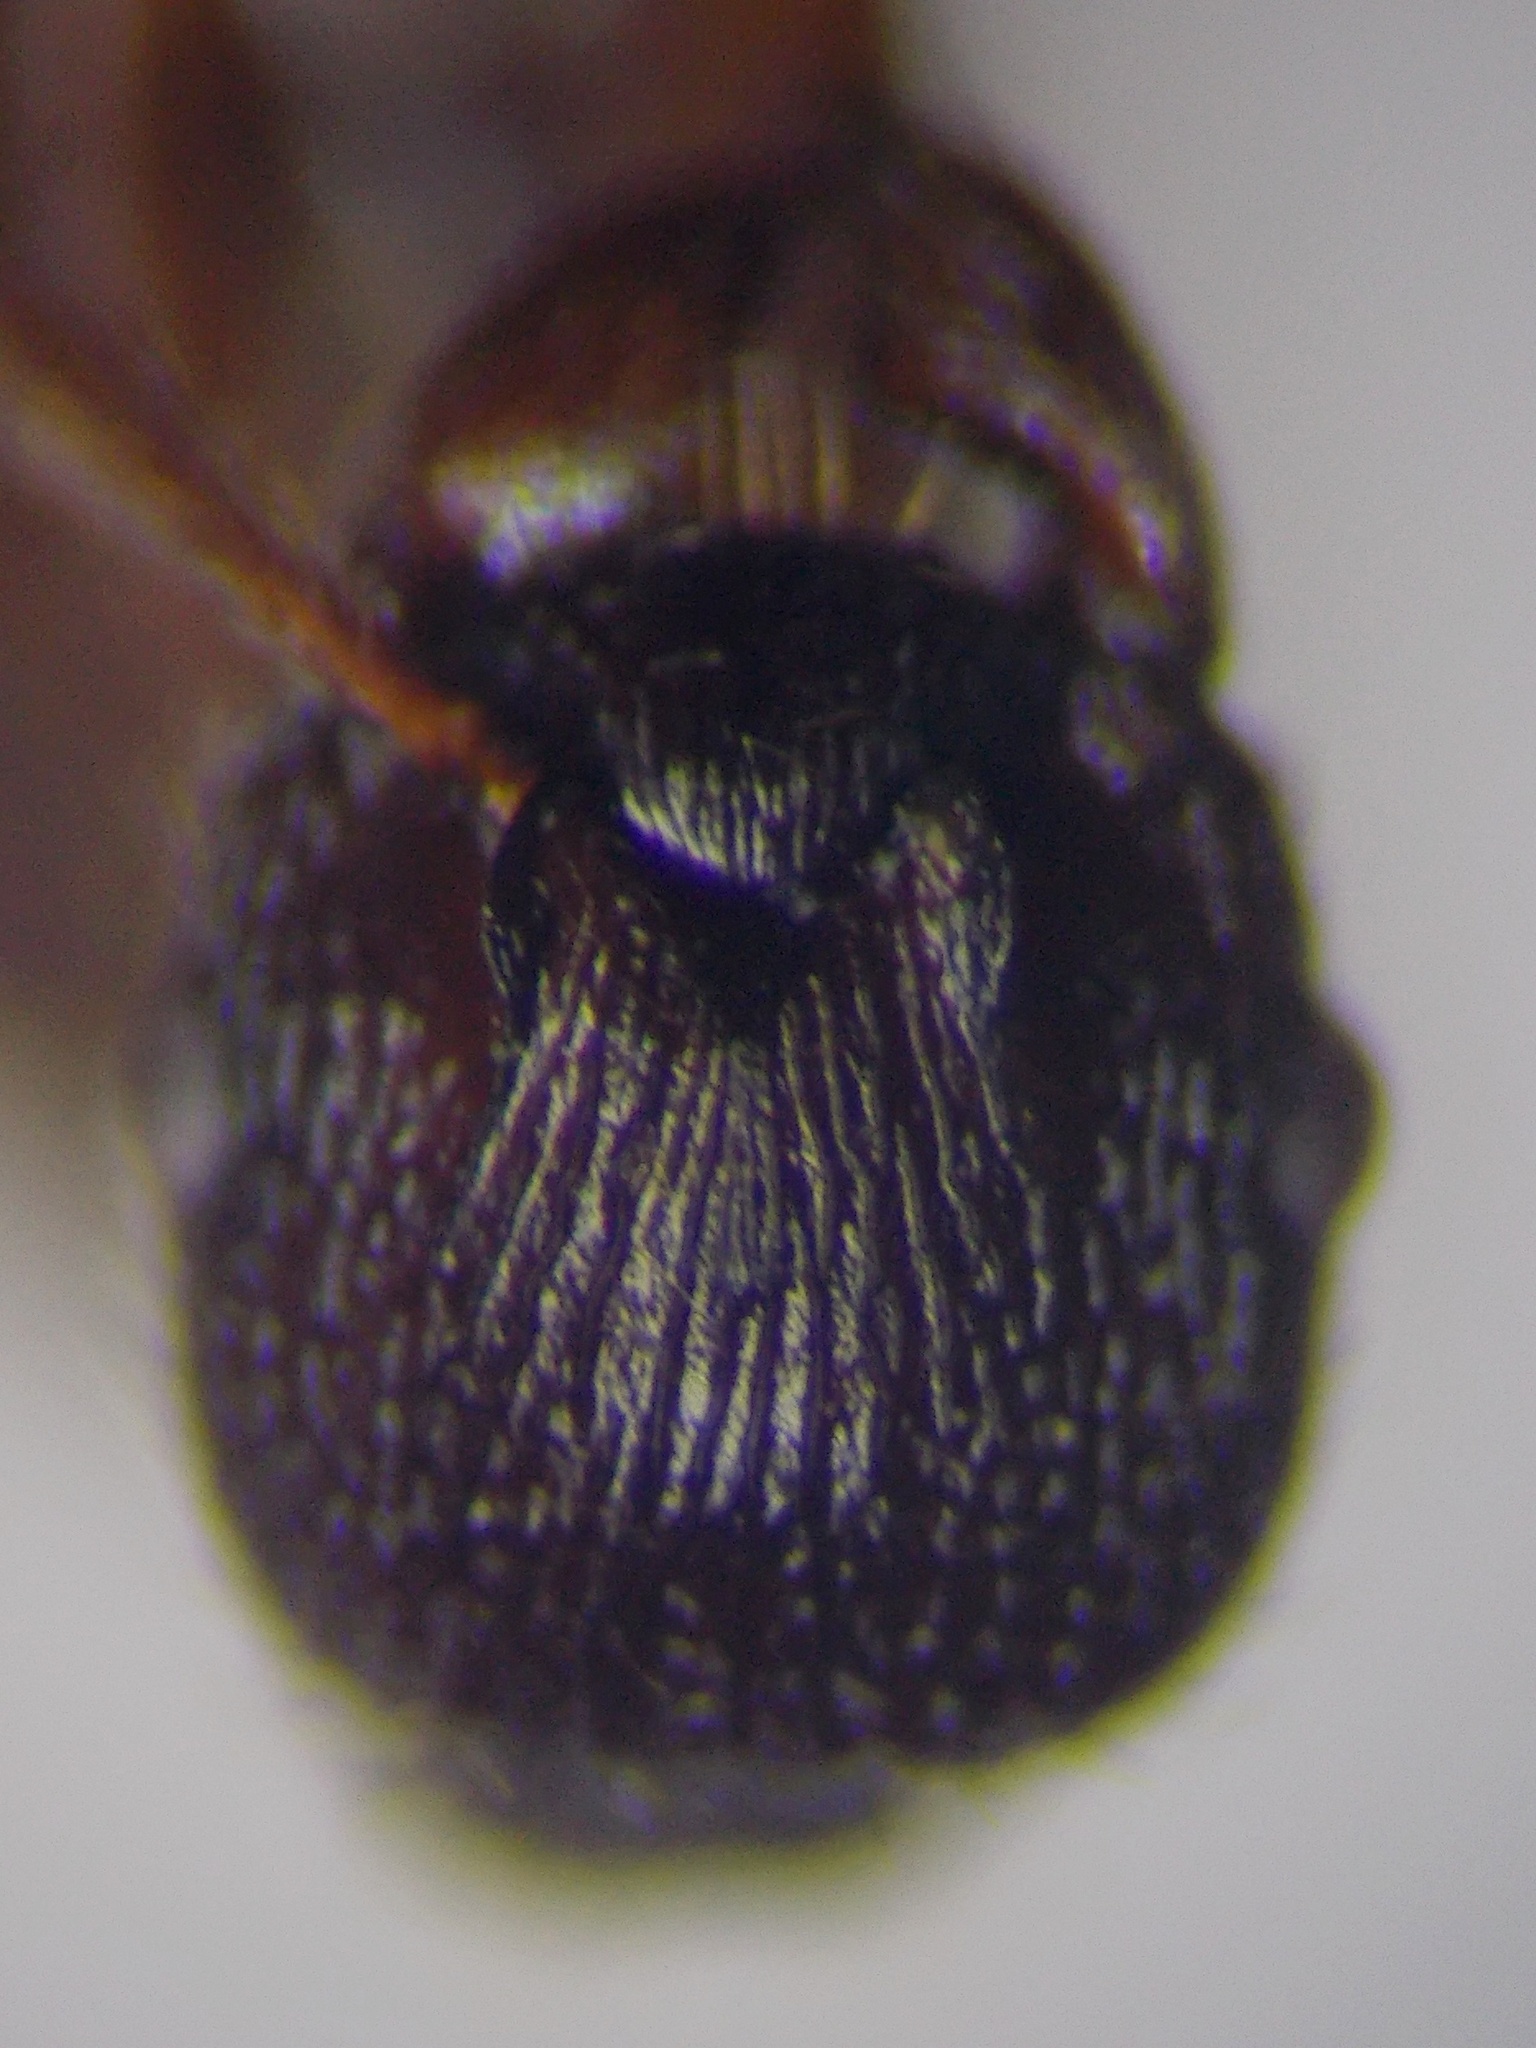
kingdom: Animalia
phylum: Arthropoda
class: Insecta
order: Hymenoptera
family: Formicidae
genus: Myrmica
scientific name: Myrmica bergi
